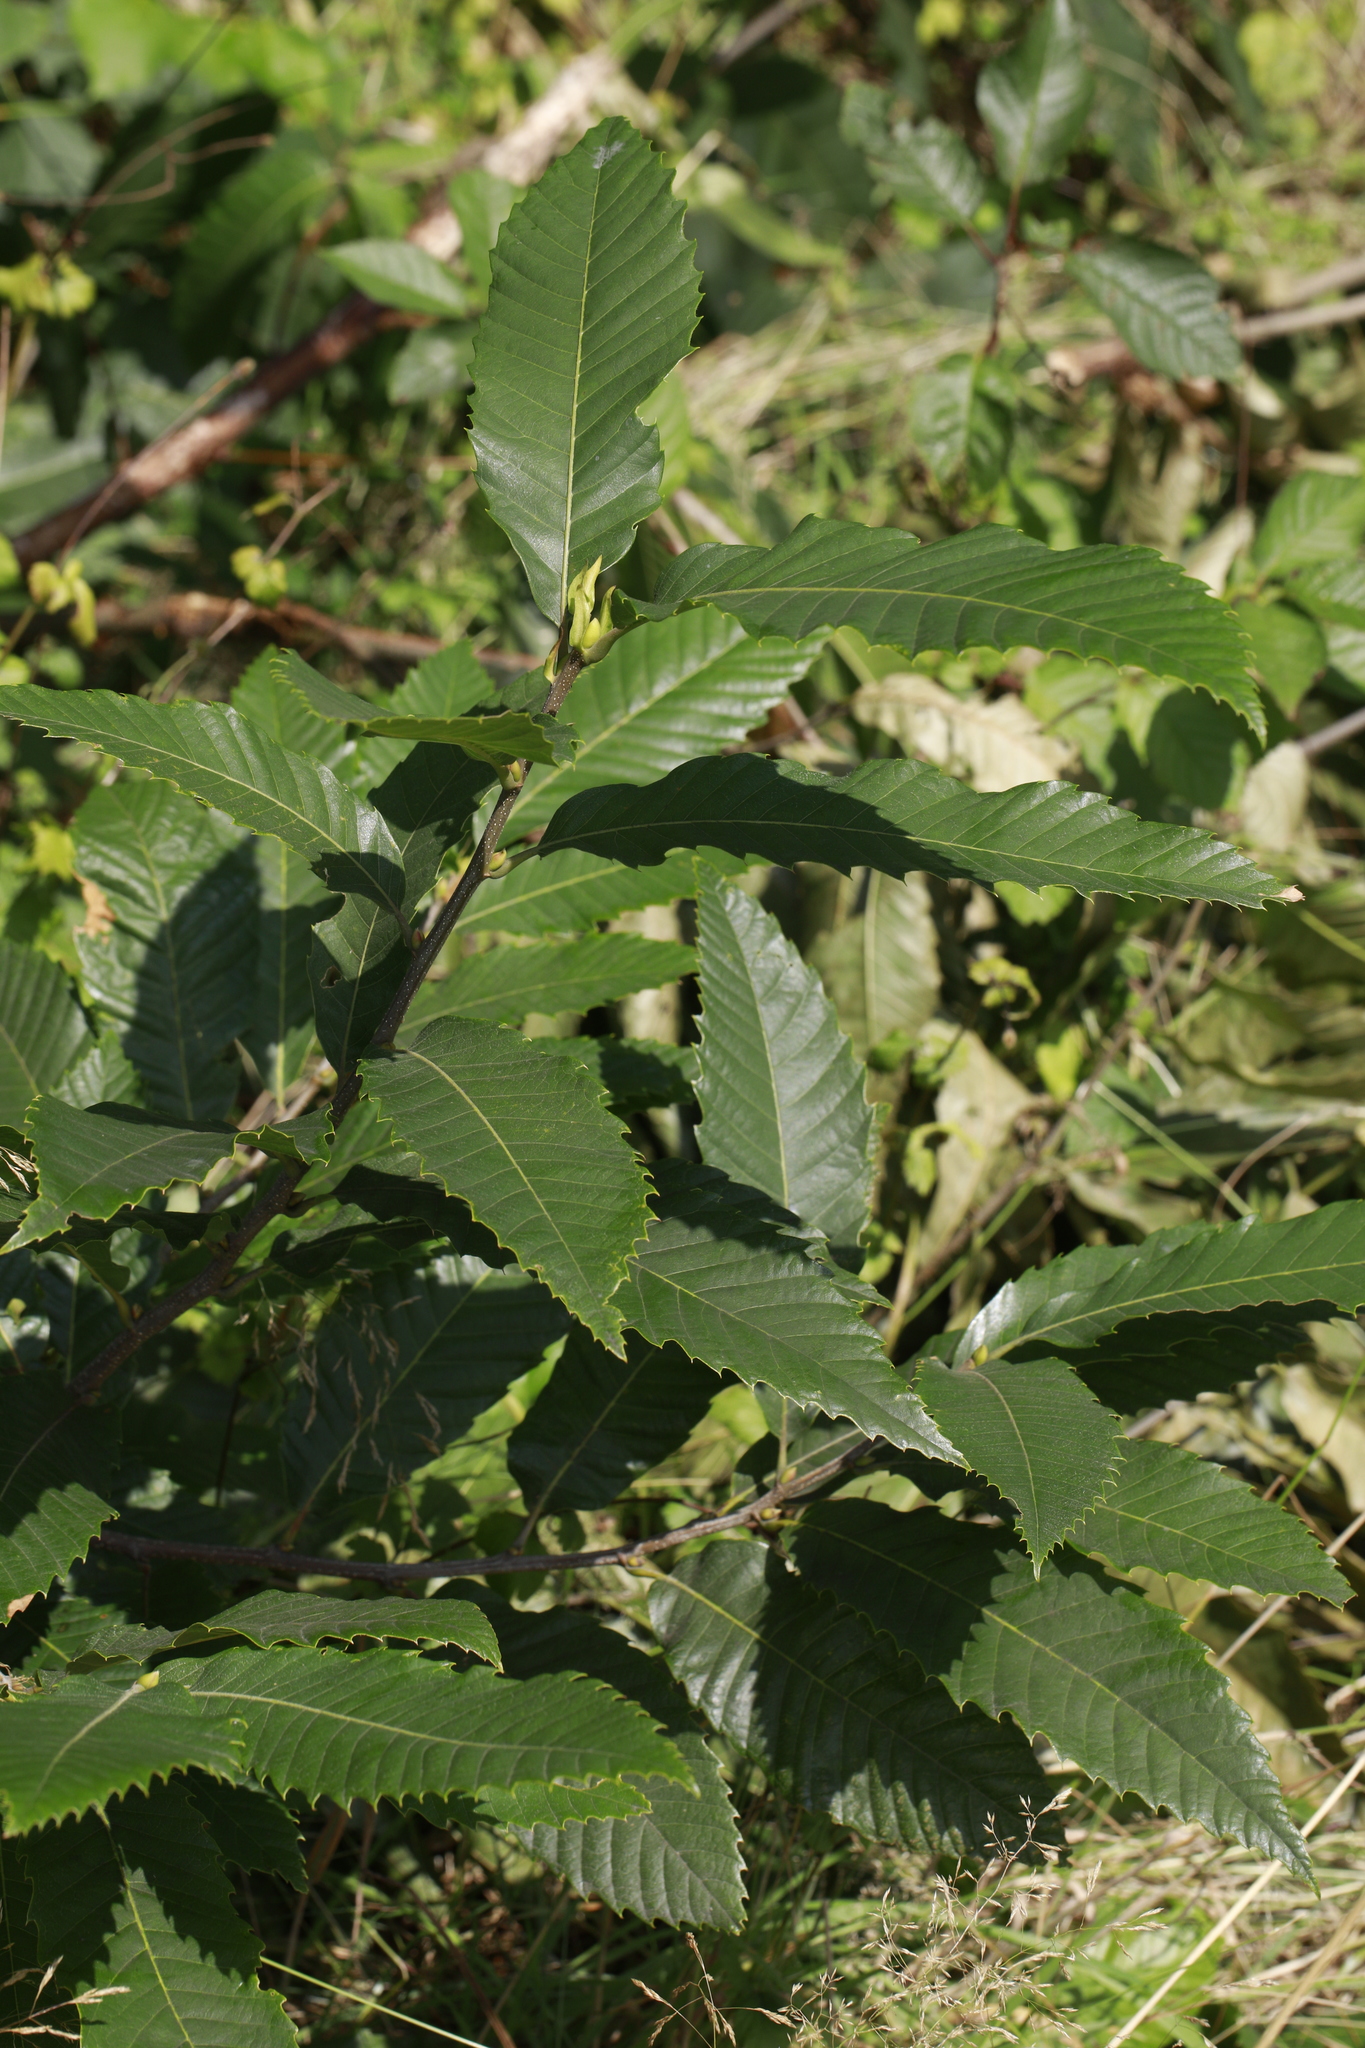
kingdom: Plantae
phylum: Tracheophyta
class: Magnoliopsida
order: Fagales
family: Fagaceae
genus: Castanea
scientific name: Castanea sativa
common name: Sweet chestnut
